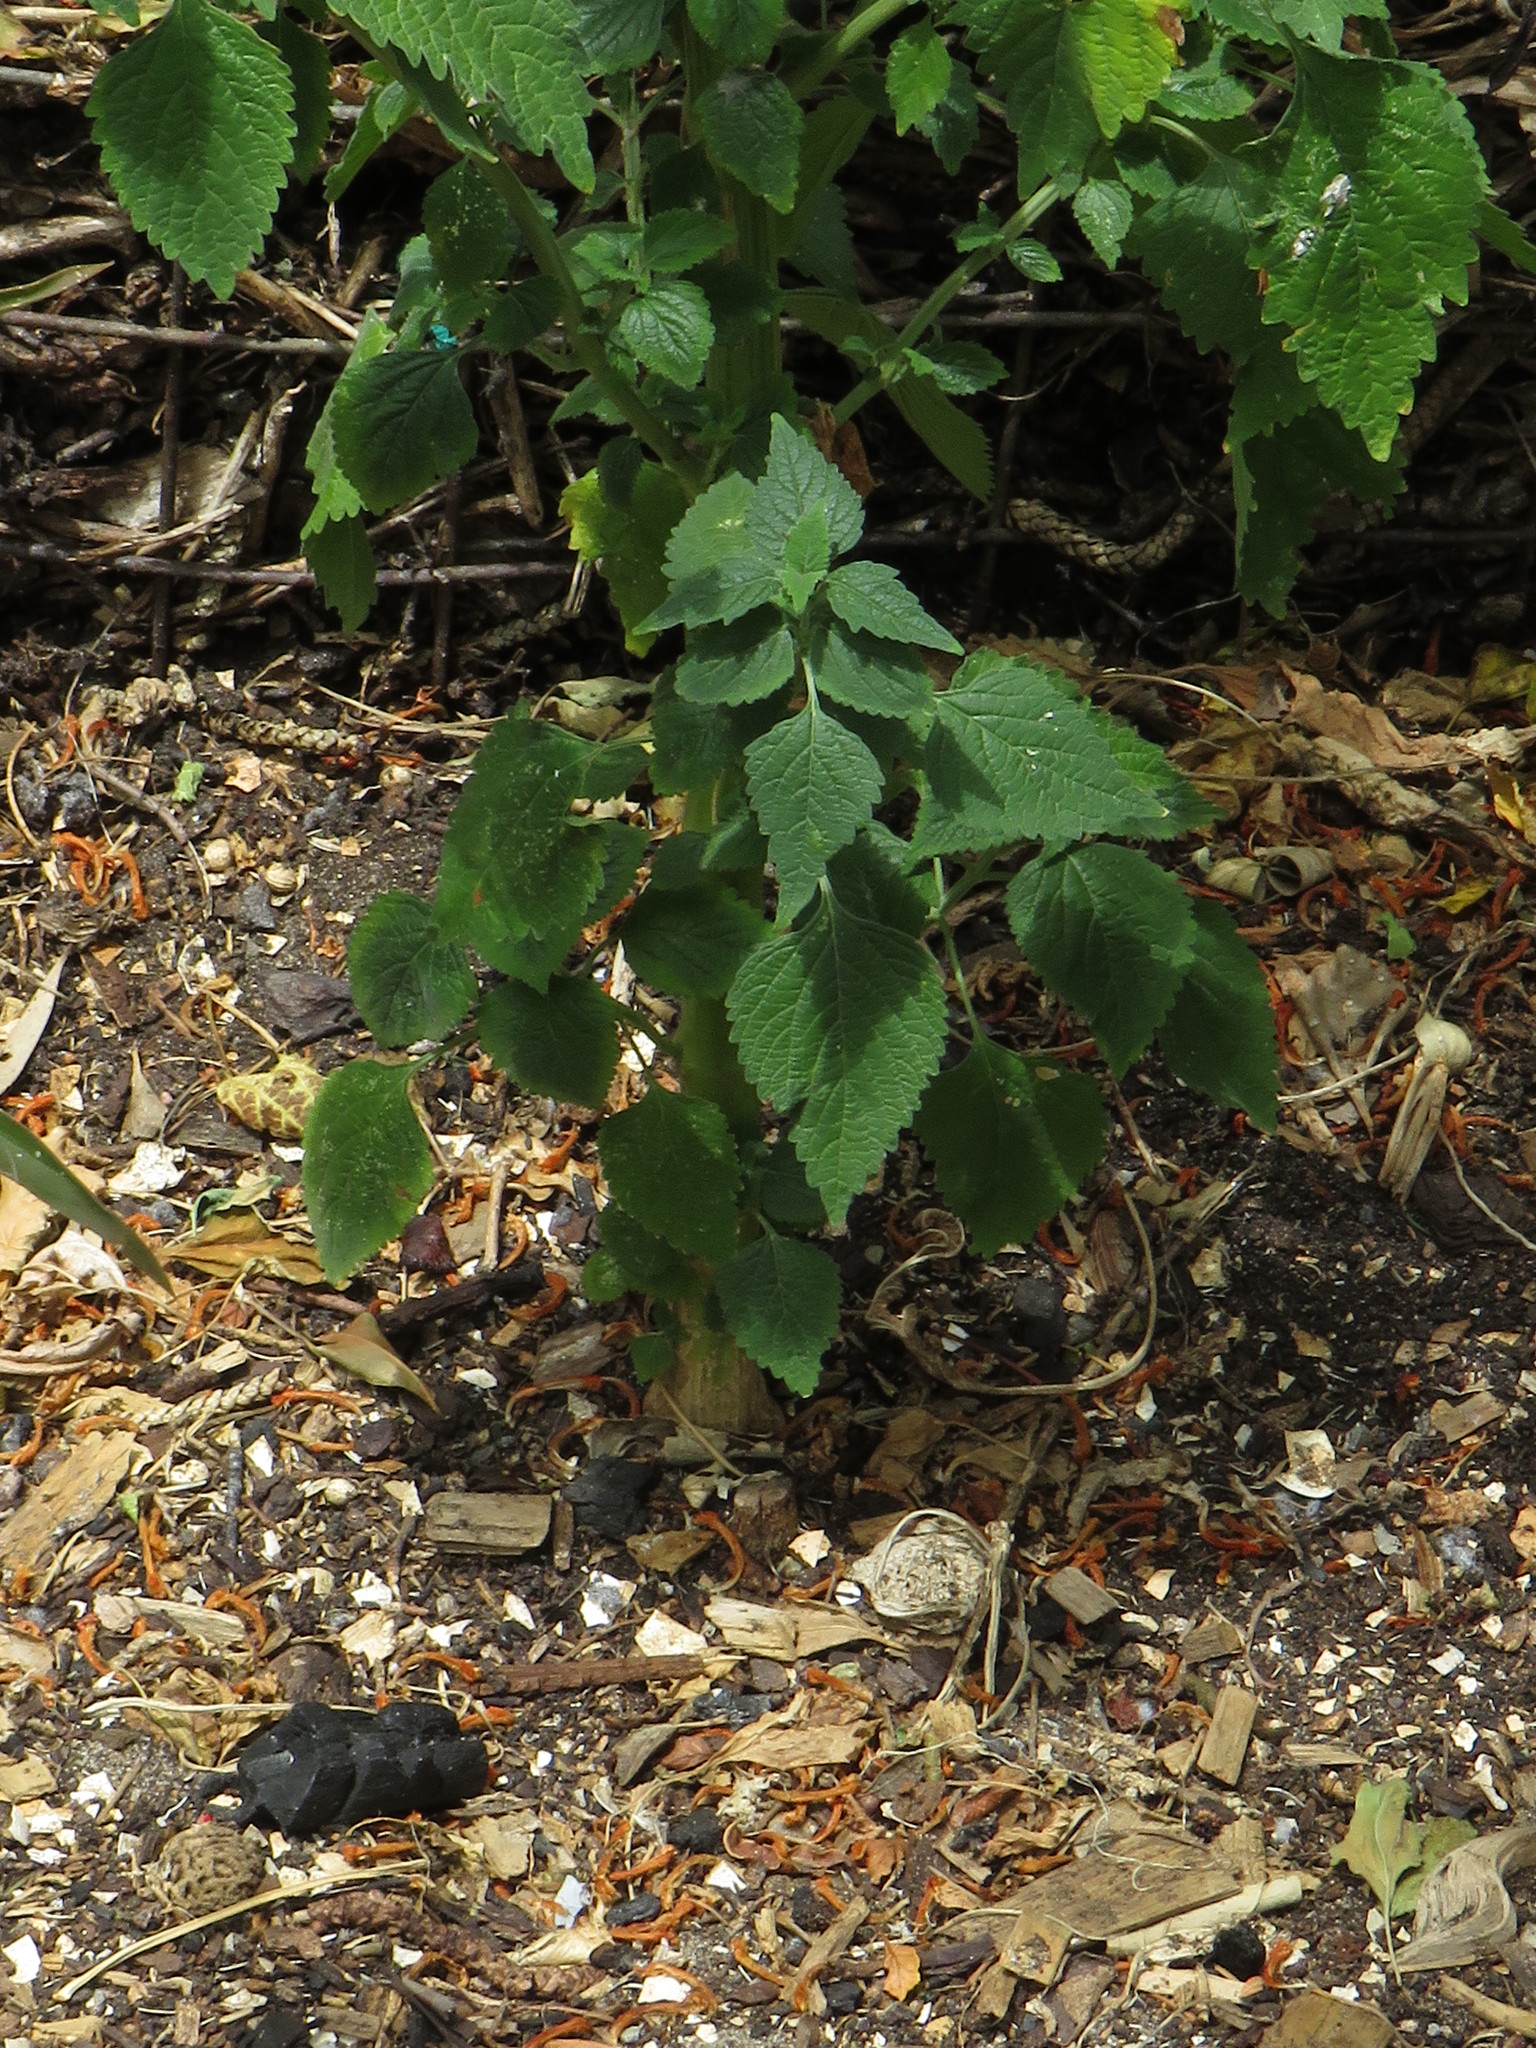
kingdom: Plantae
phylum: Tracheophyta
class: Magnoliopsida
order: Lamiales
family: Lamiaceae
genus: Leonotis
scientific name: Leonotis nepetifolia
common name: Christmas candlestick
